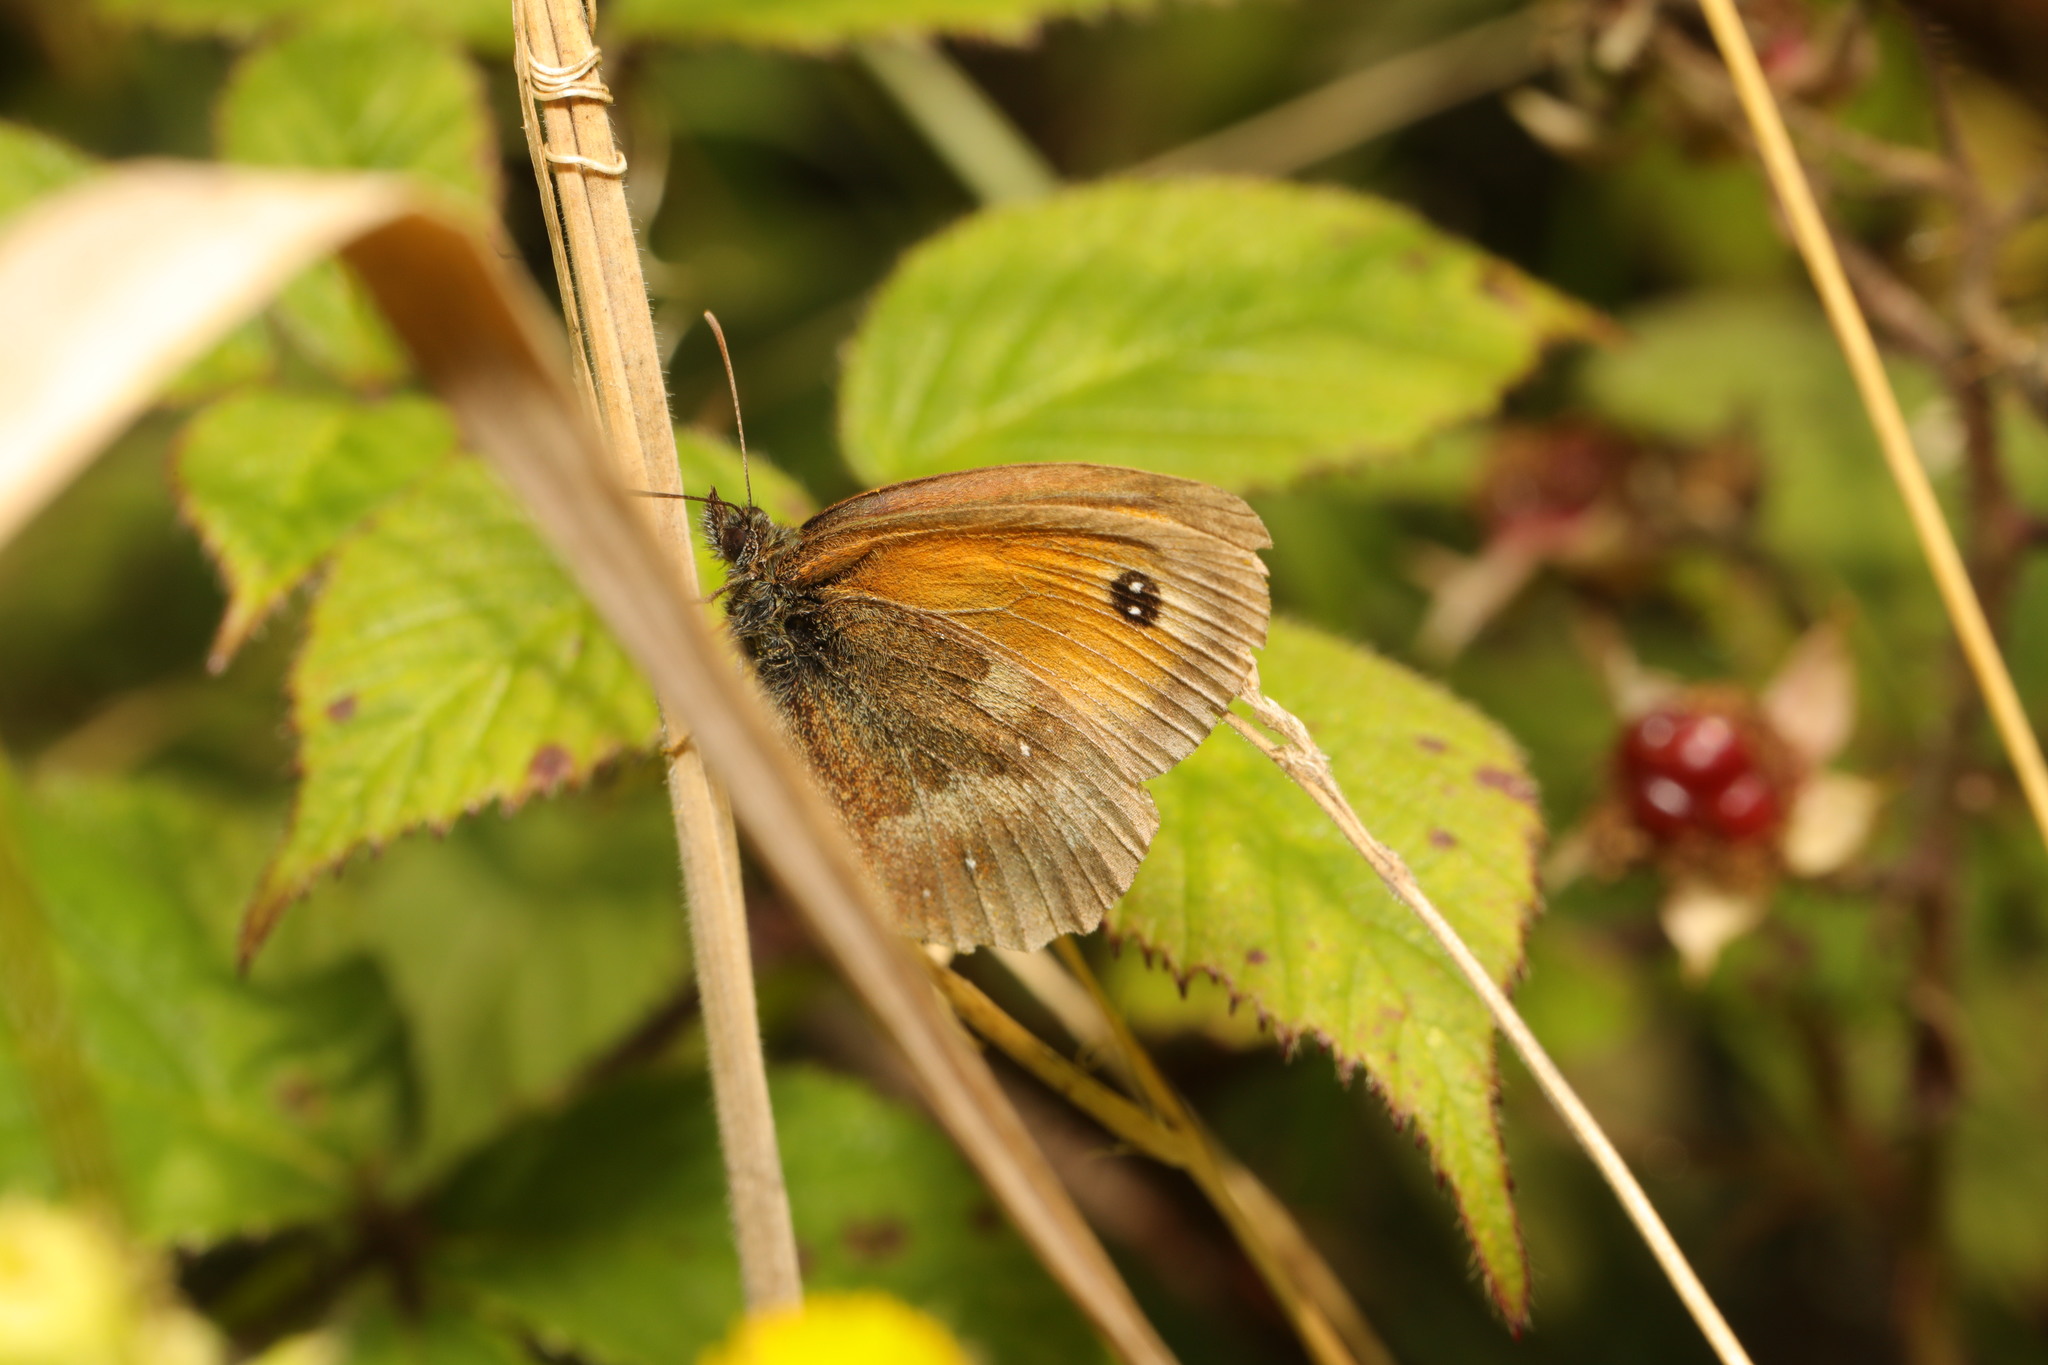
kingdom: Animalia
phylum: Arthropoda
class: Insecta
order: Lepidoptera
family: Nymphalidae
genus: Pyronia
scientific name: Pyronia tithonus
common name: Gatekeeper
